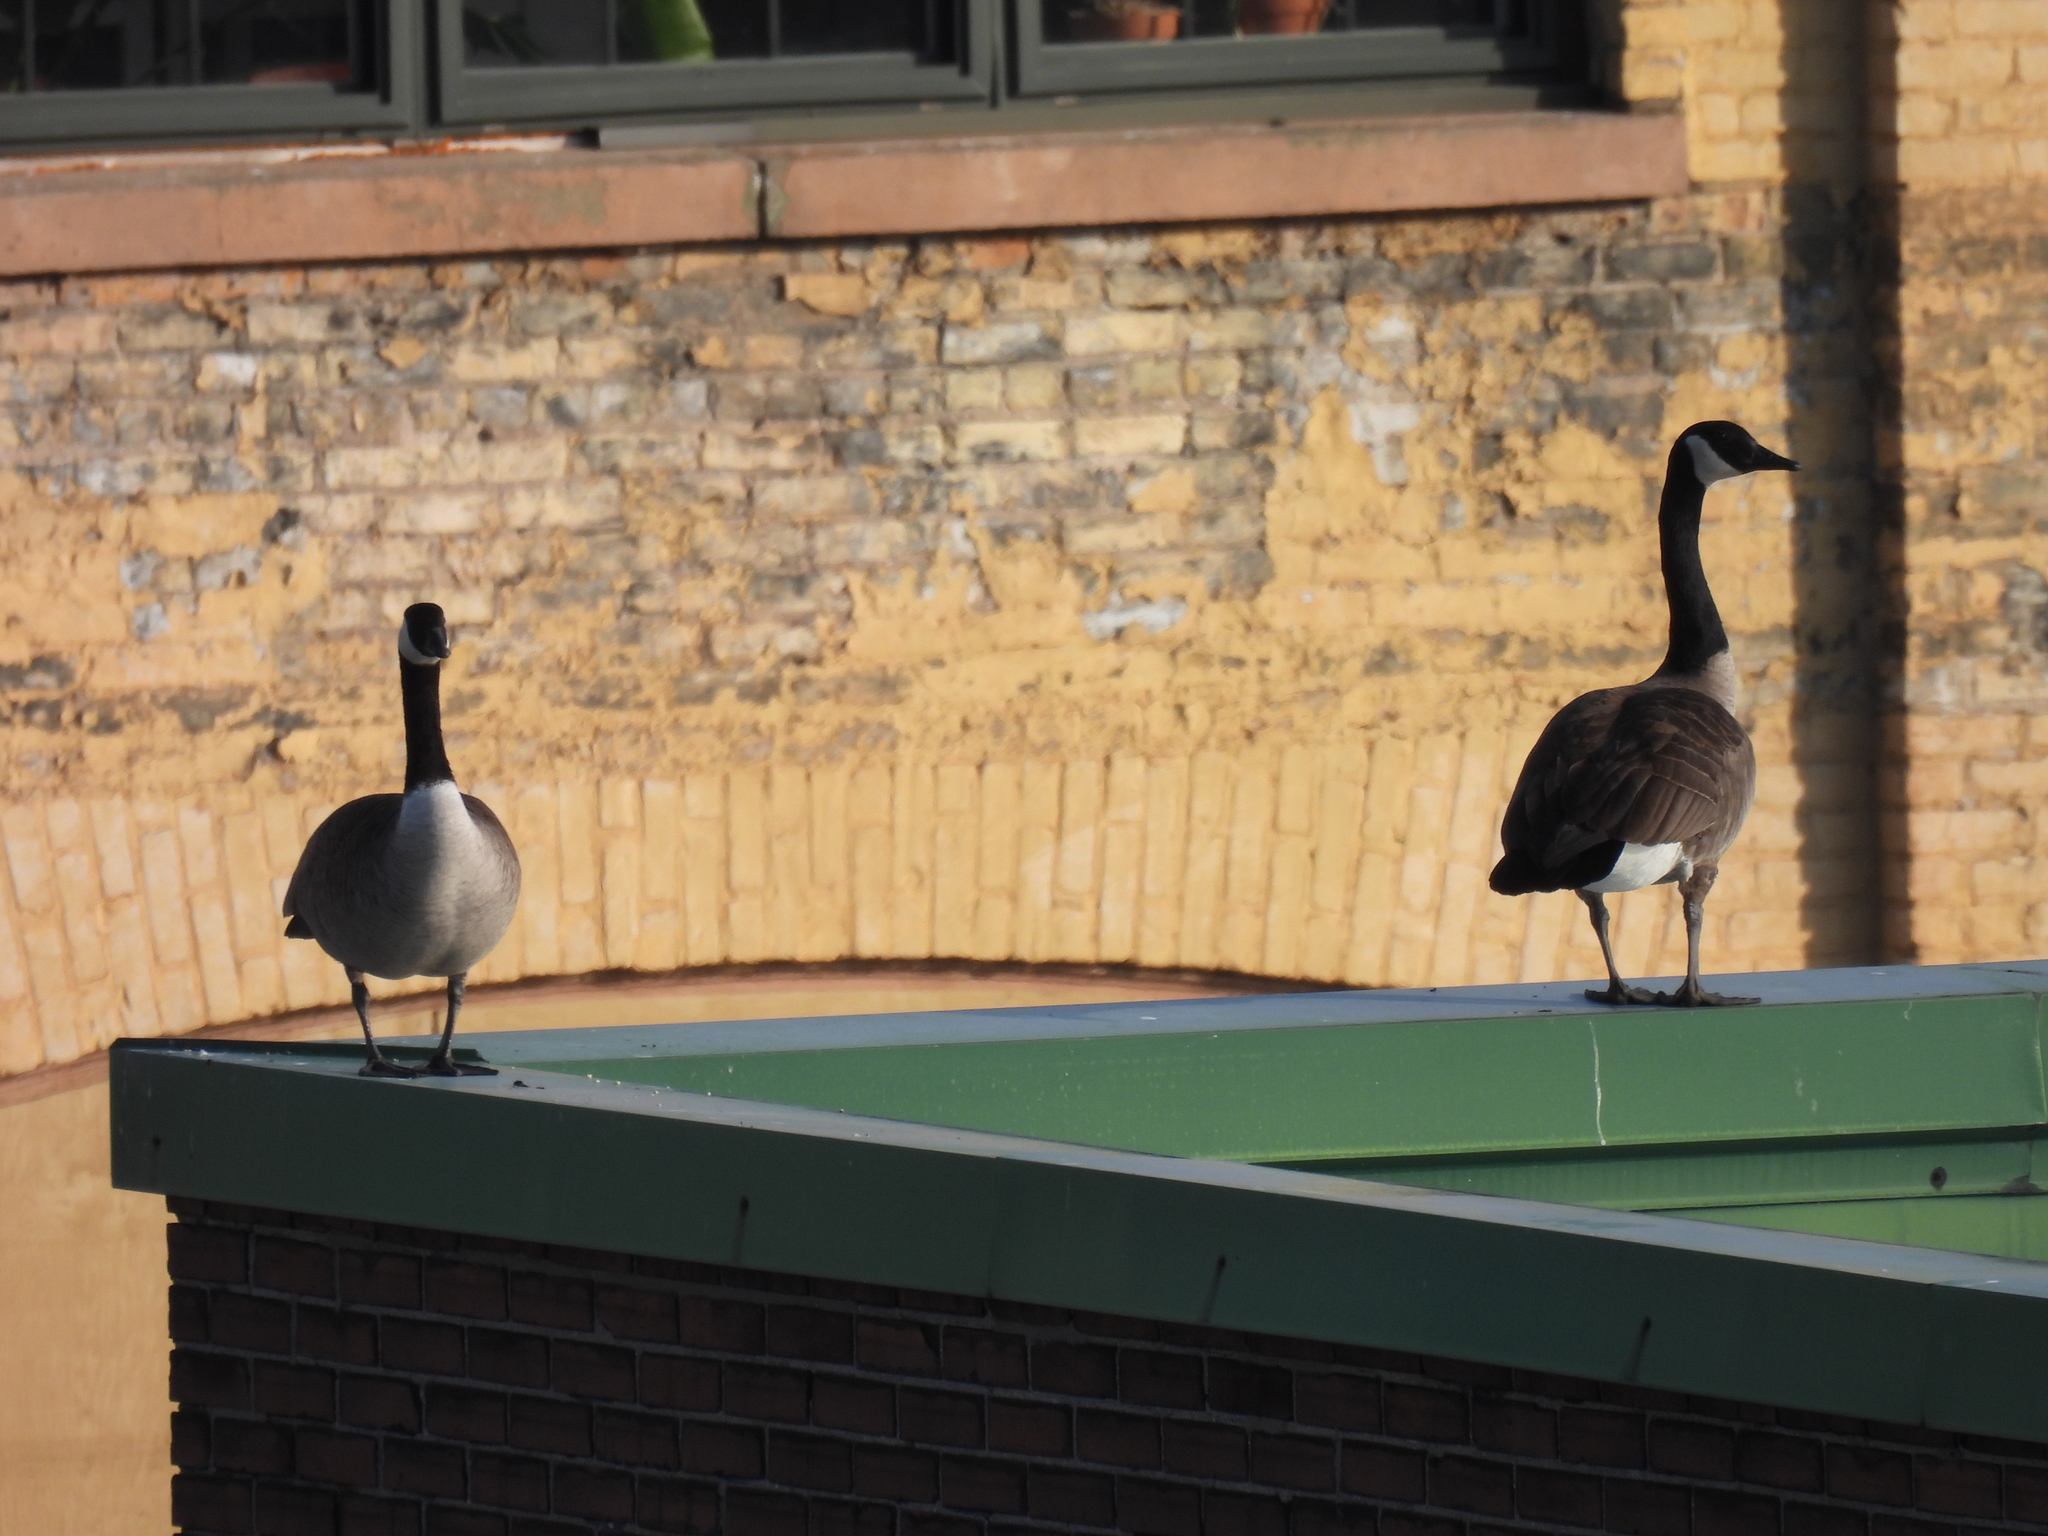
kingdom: Animalia
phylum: Chordata
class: Aves
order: Anseriformes
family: Anatidae
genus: Branta
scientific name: Branta canadensis
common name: Canada goose
